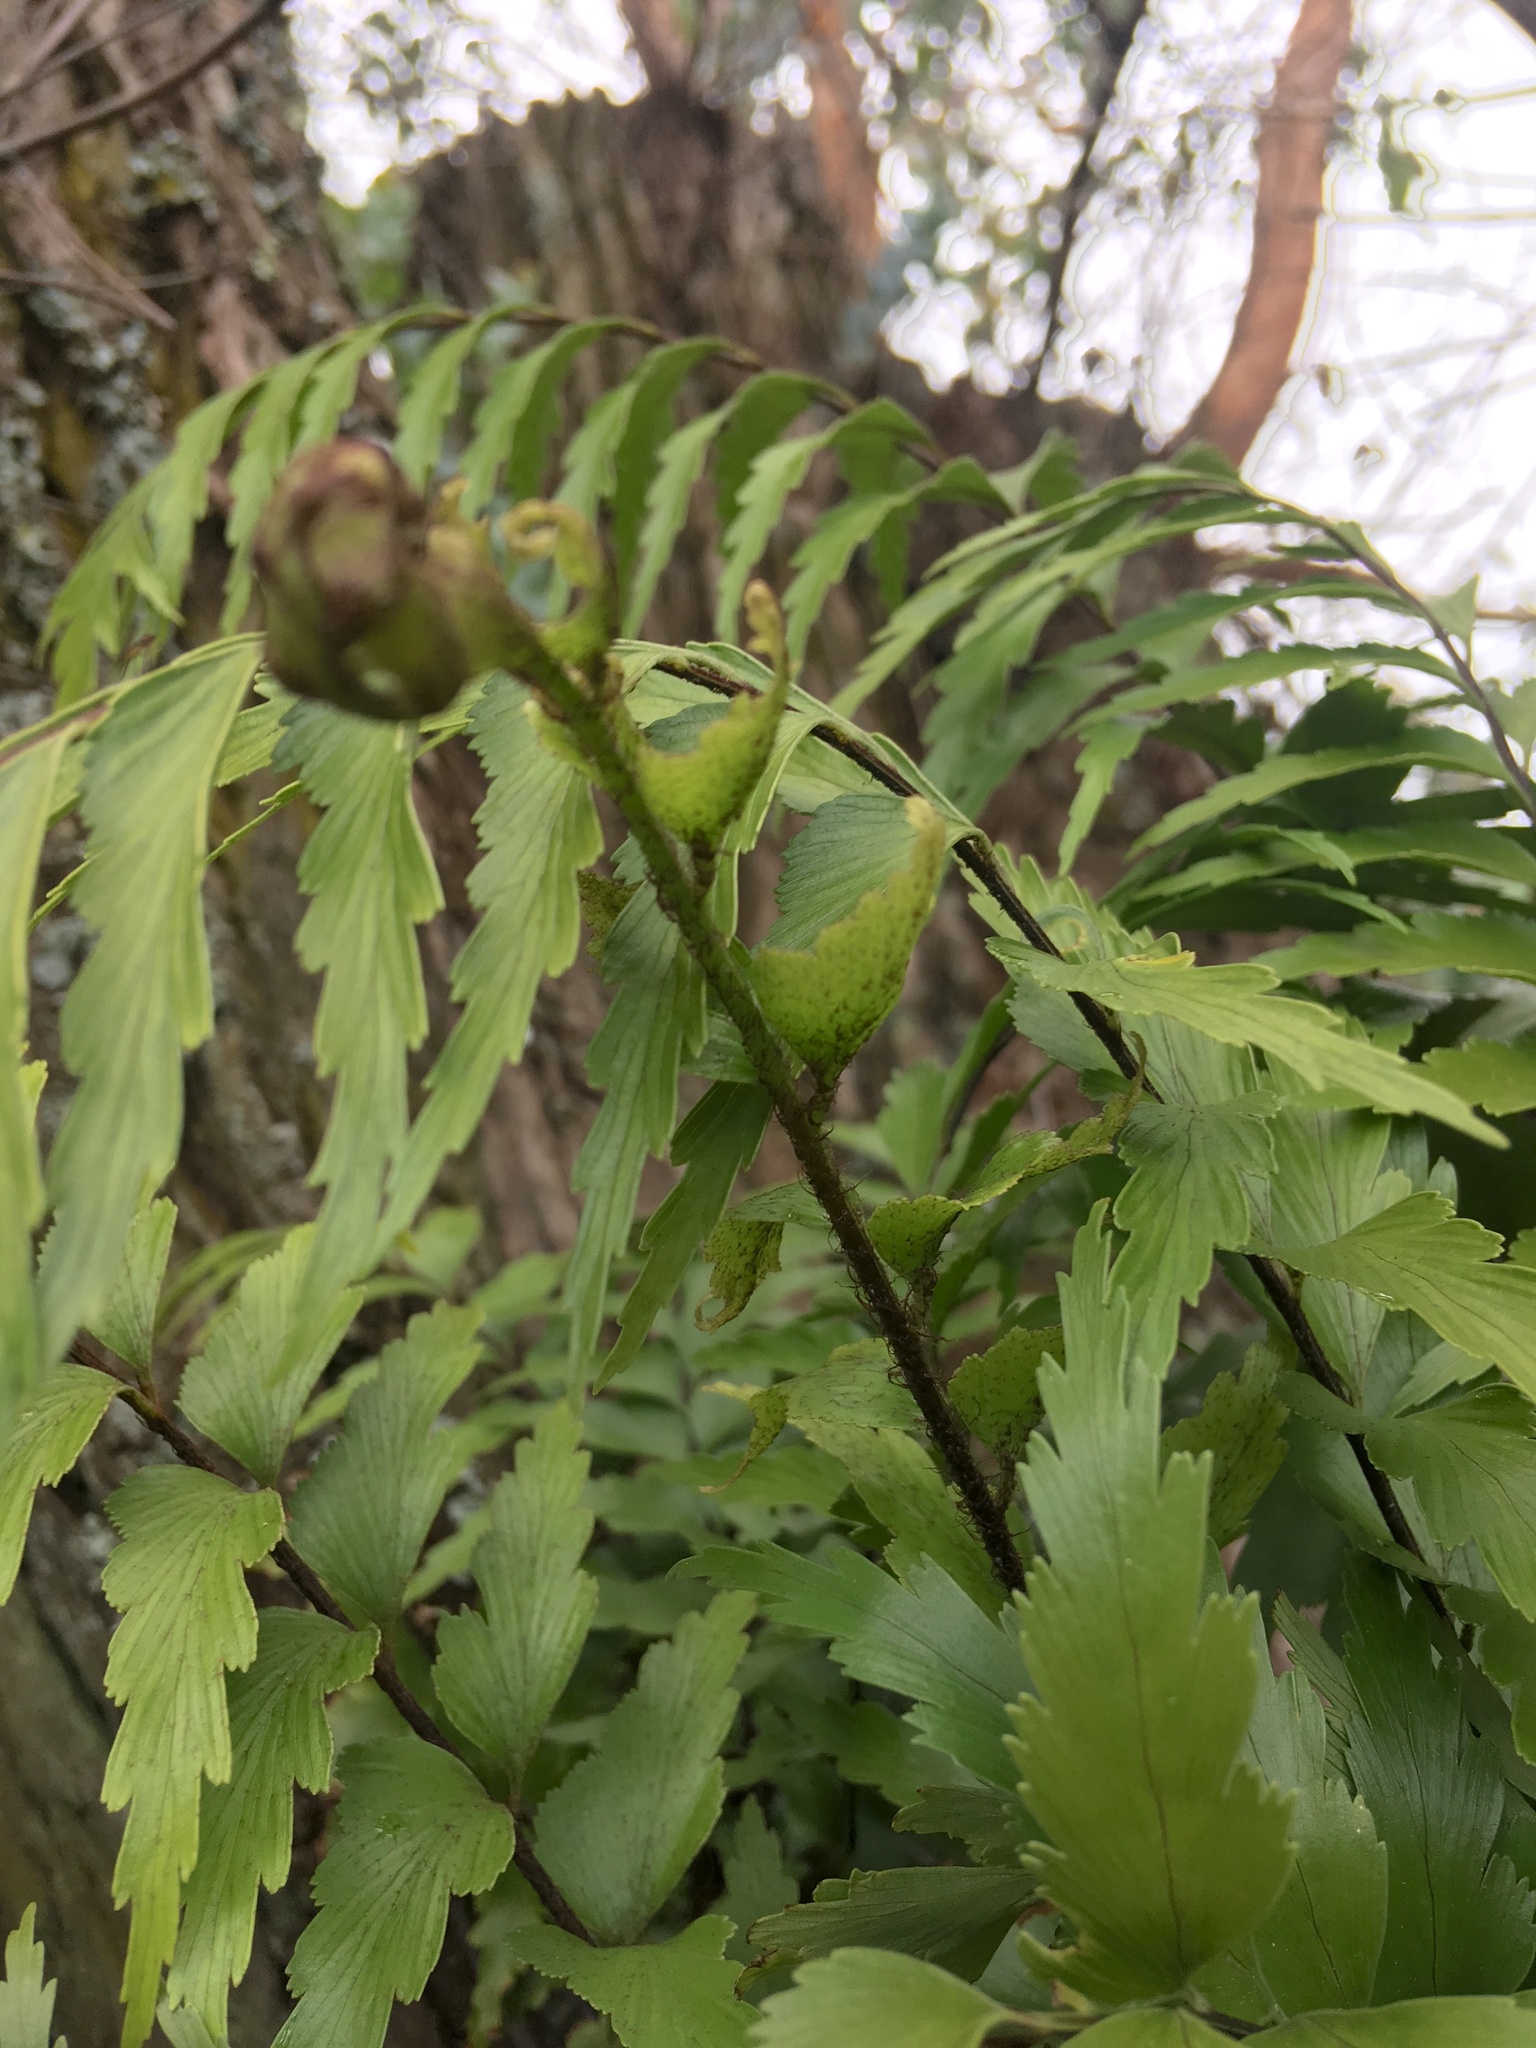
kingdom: Plantae
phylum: Tracheophyta
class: Polypodiopsida
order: Polypodiales
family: Aspleniaceae
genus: Asplenium
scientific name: Asplenium polyodon
